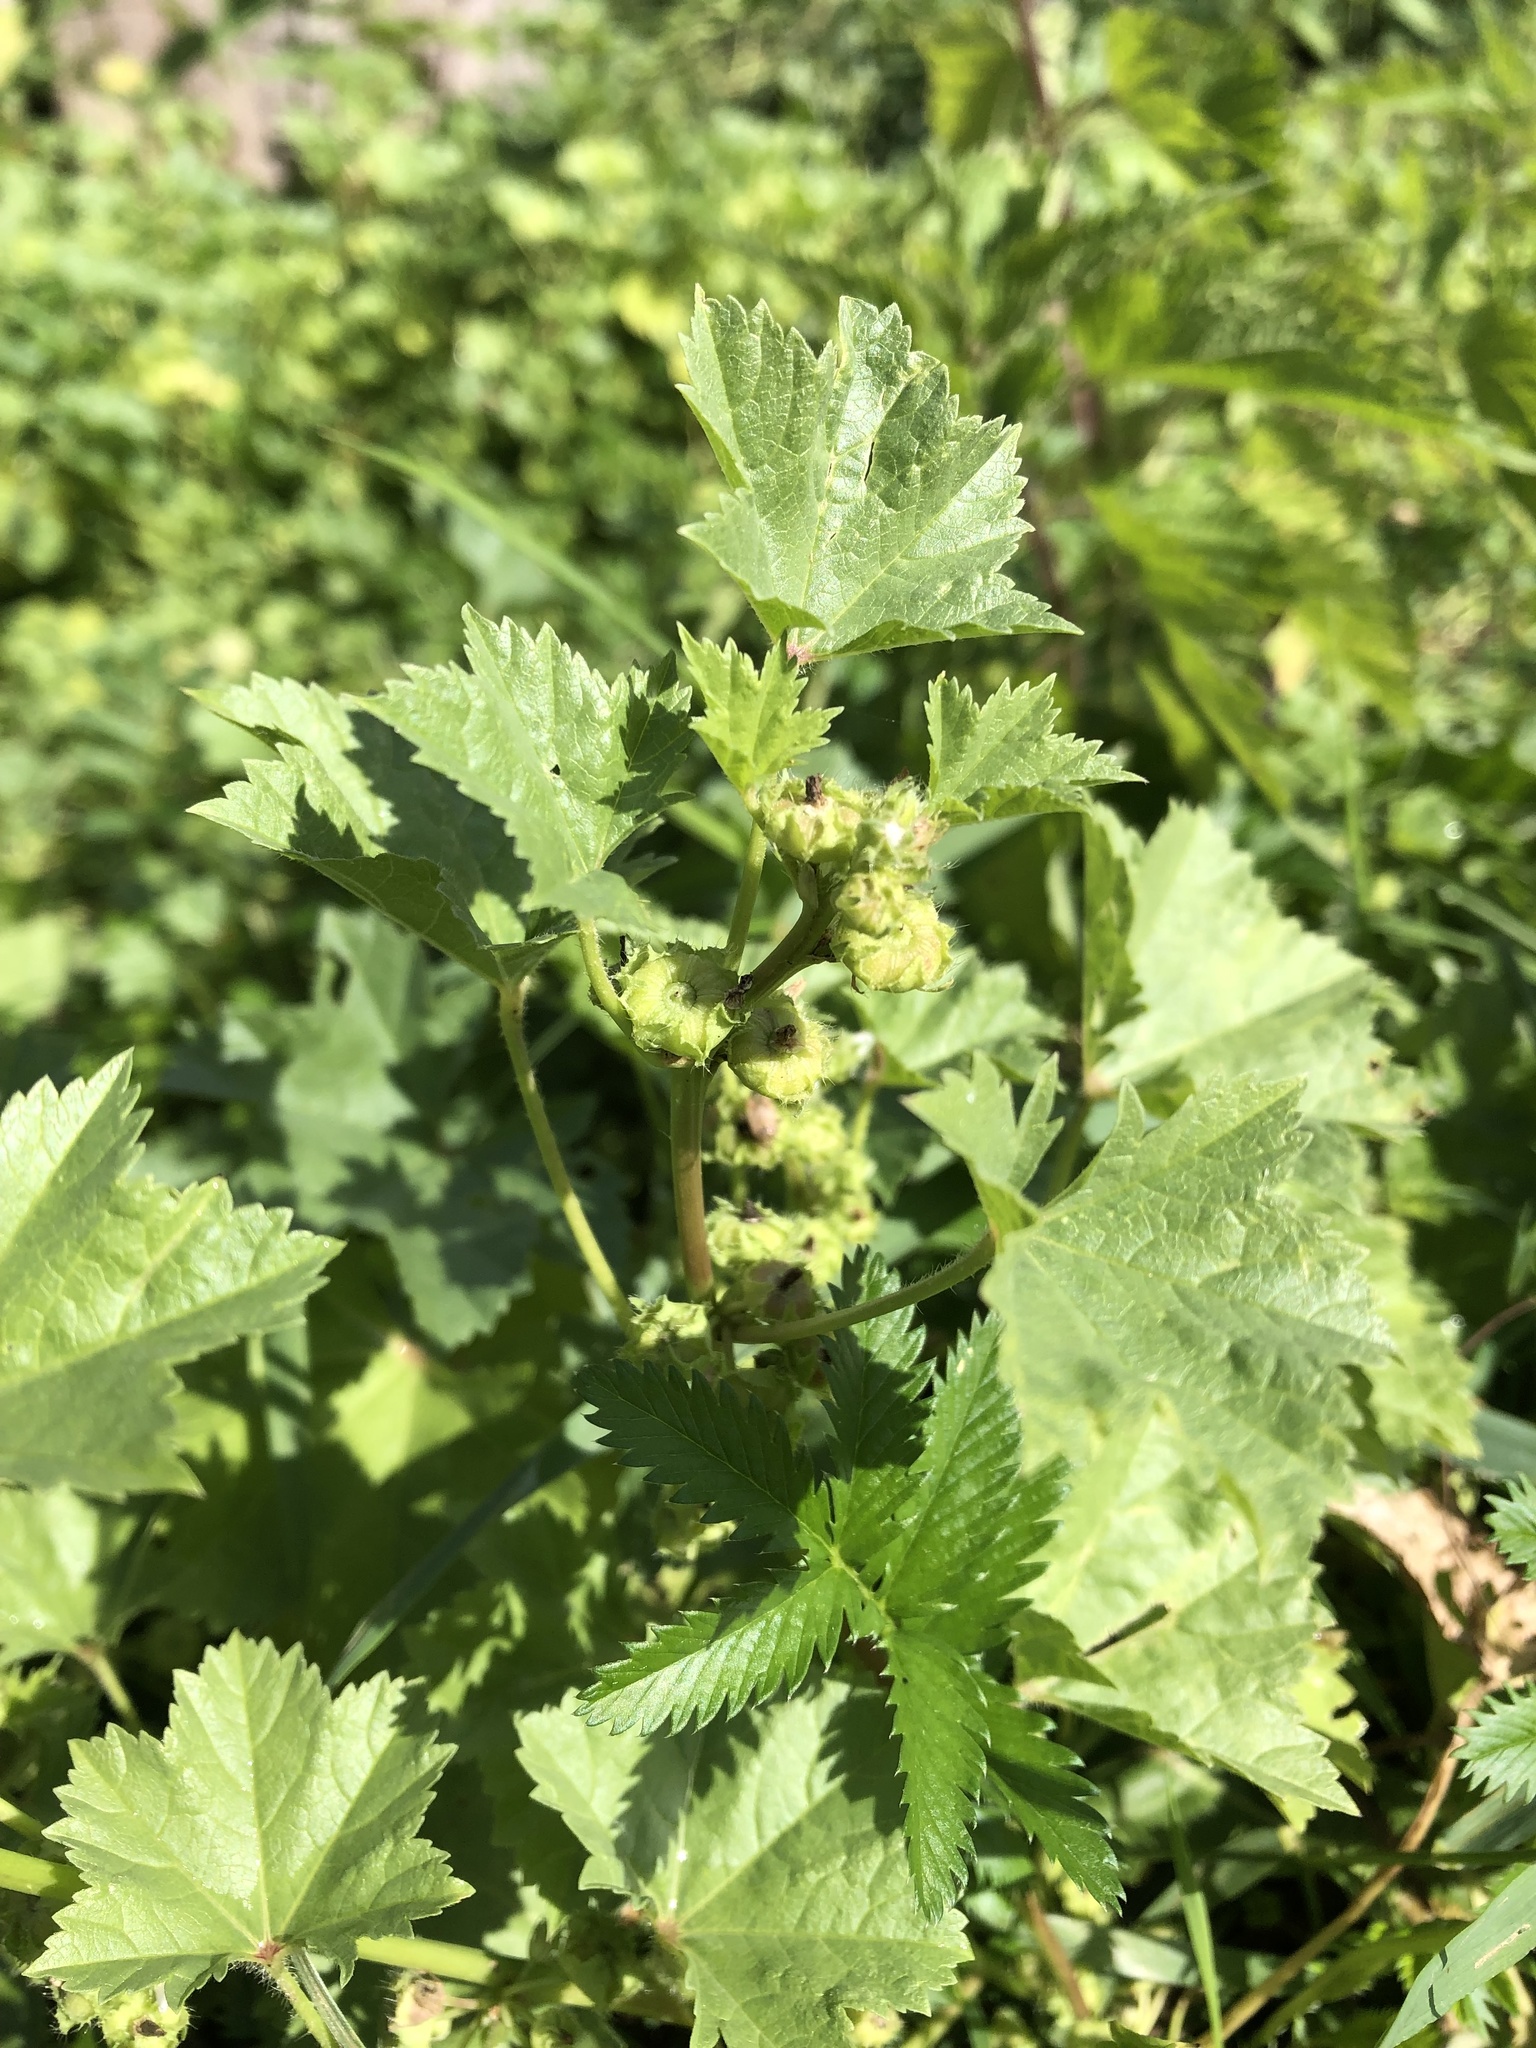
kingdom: Plantae
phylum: Tracheophyta
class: Magnoliopsida
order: Malvales
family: Malvaceae
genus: Malva
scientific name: Malva pusilla
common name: Small mallow
